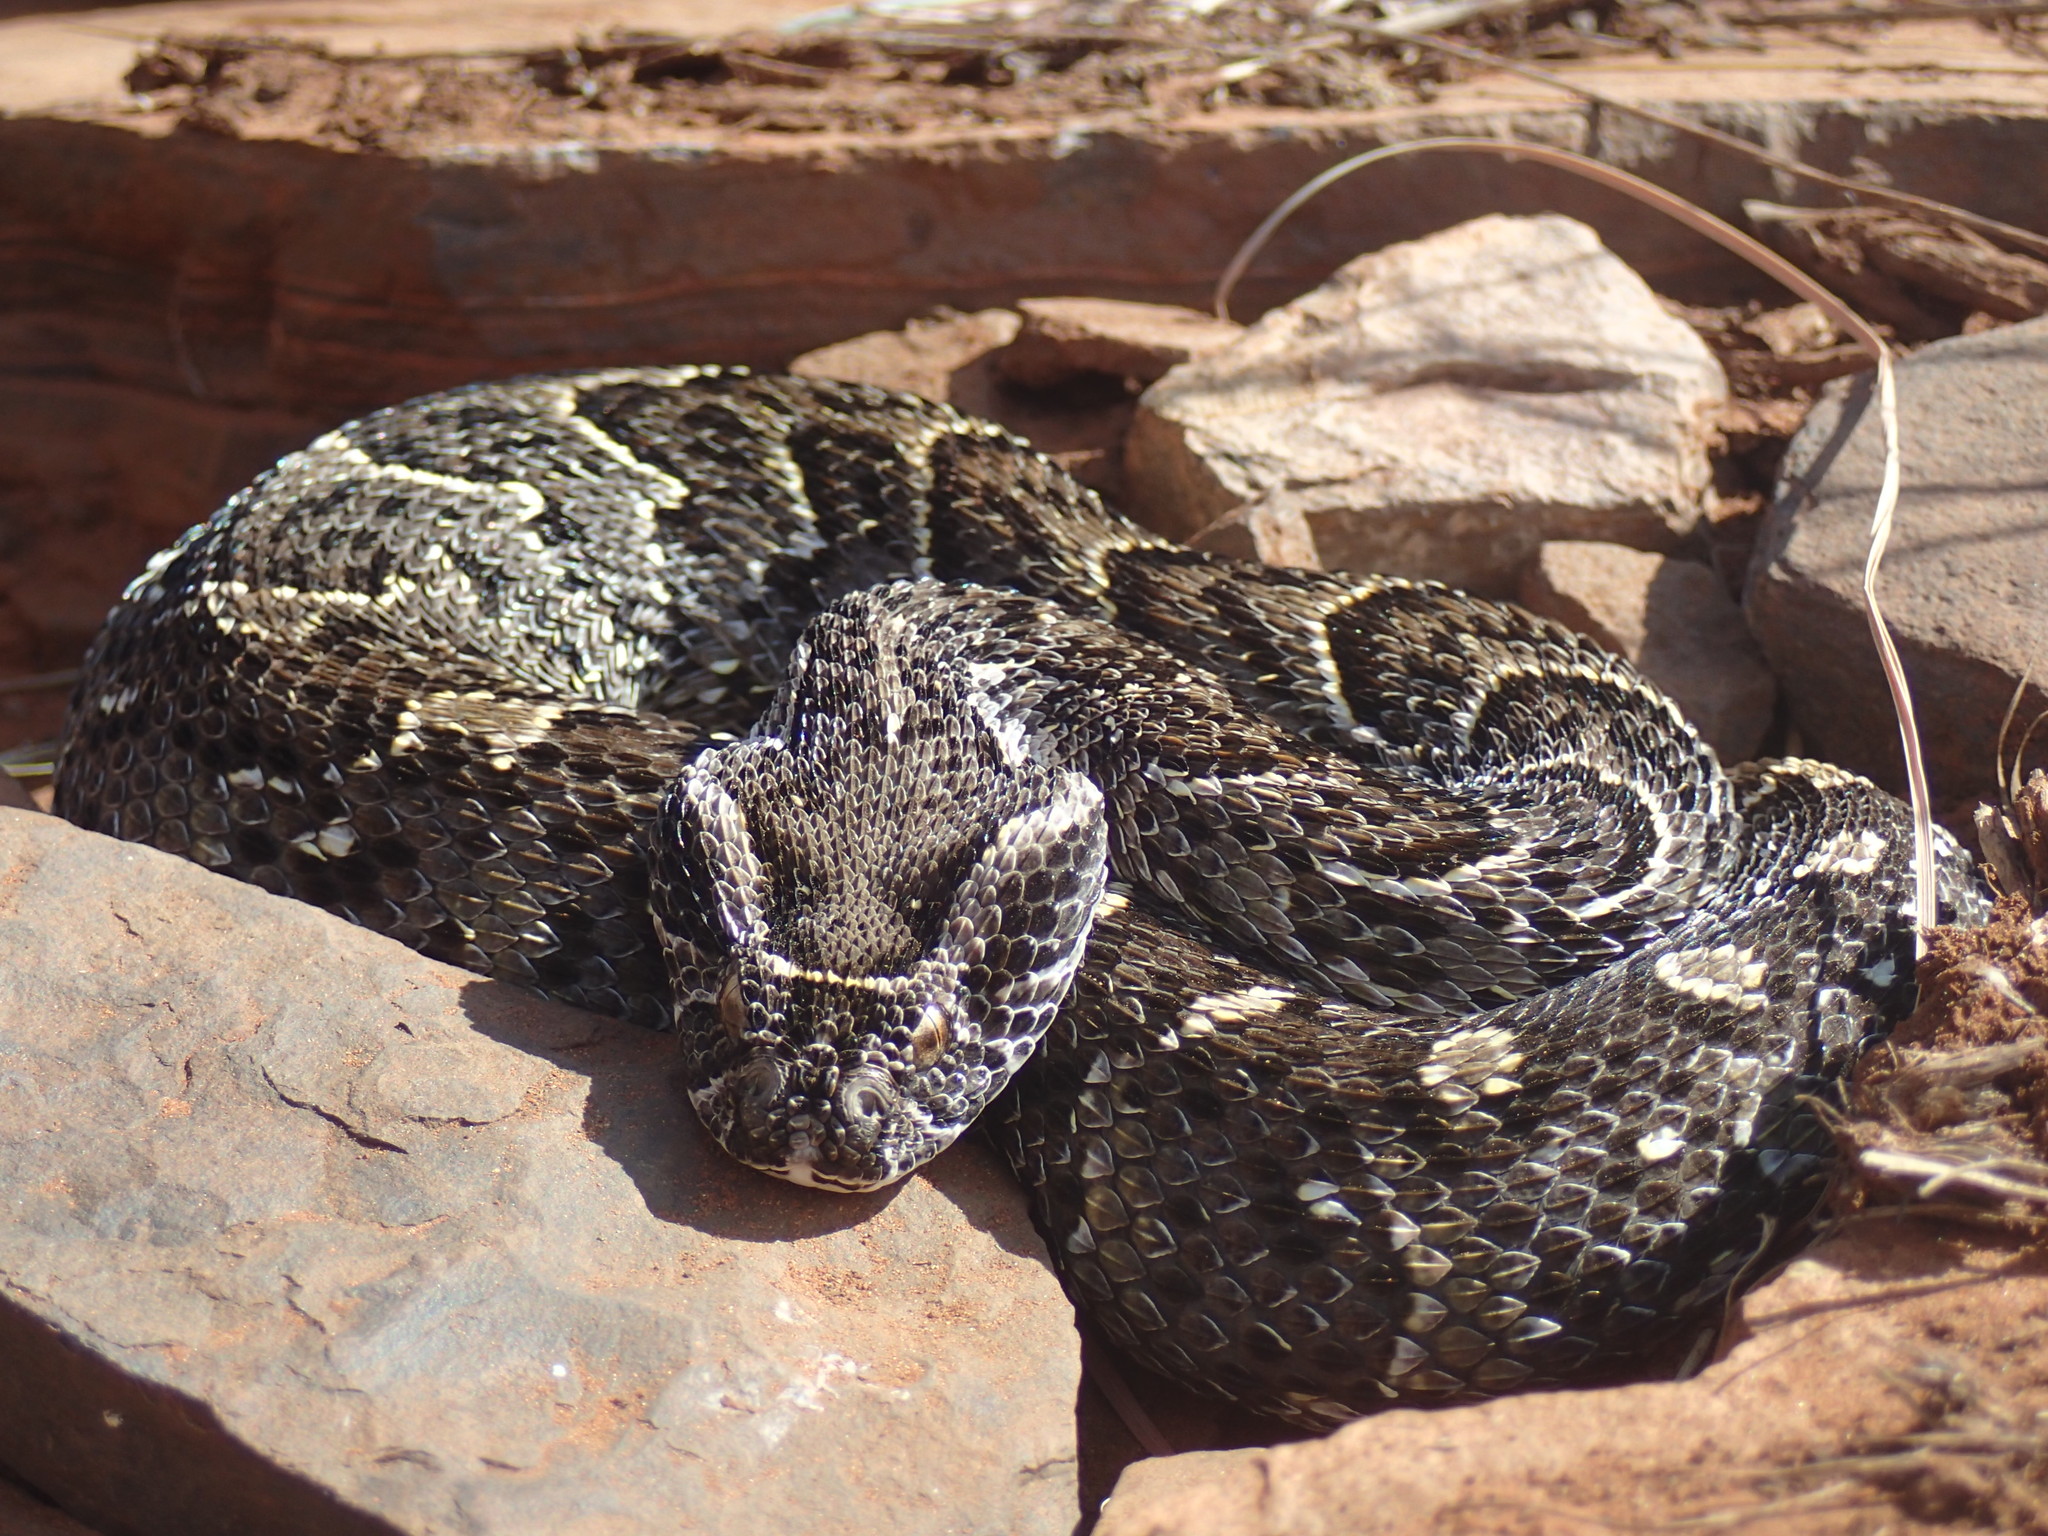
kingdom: Animalia
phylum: Chordata
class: Squamata
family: Viperidae
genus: Bitis
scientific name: Bitis arietans
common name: Puff adder
